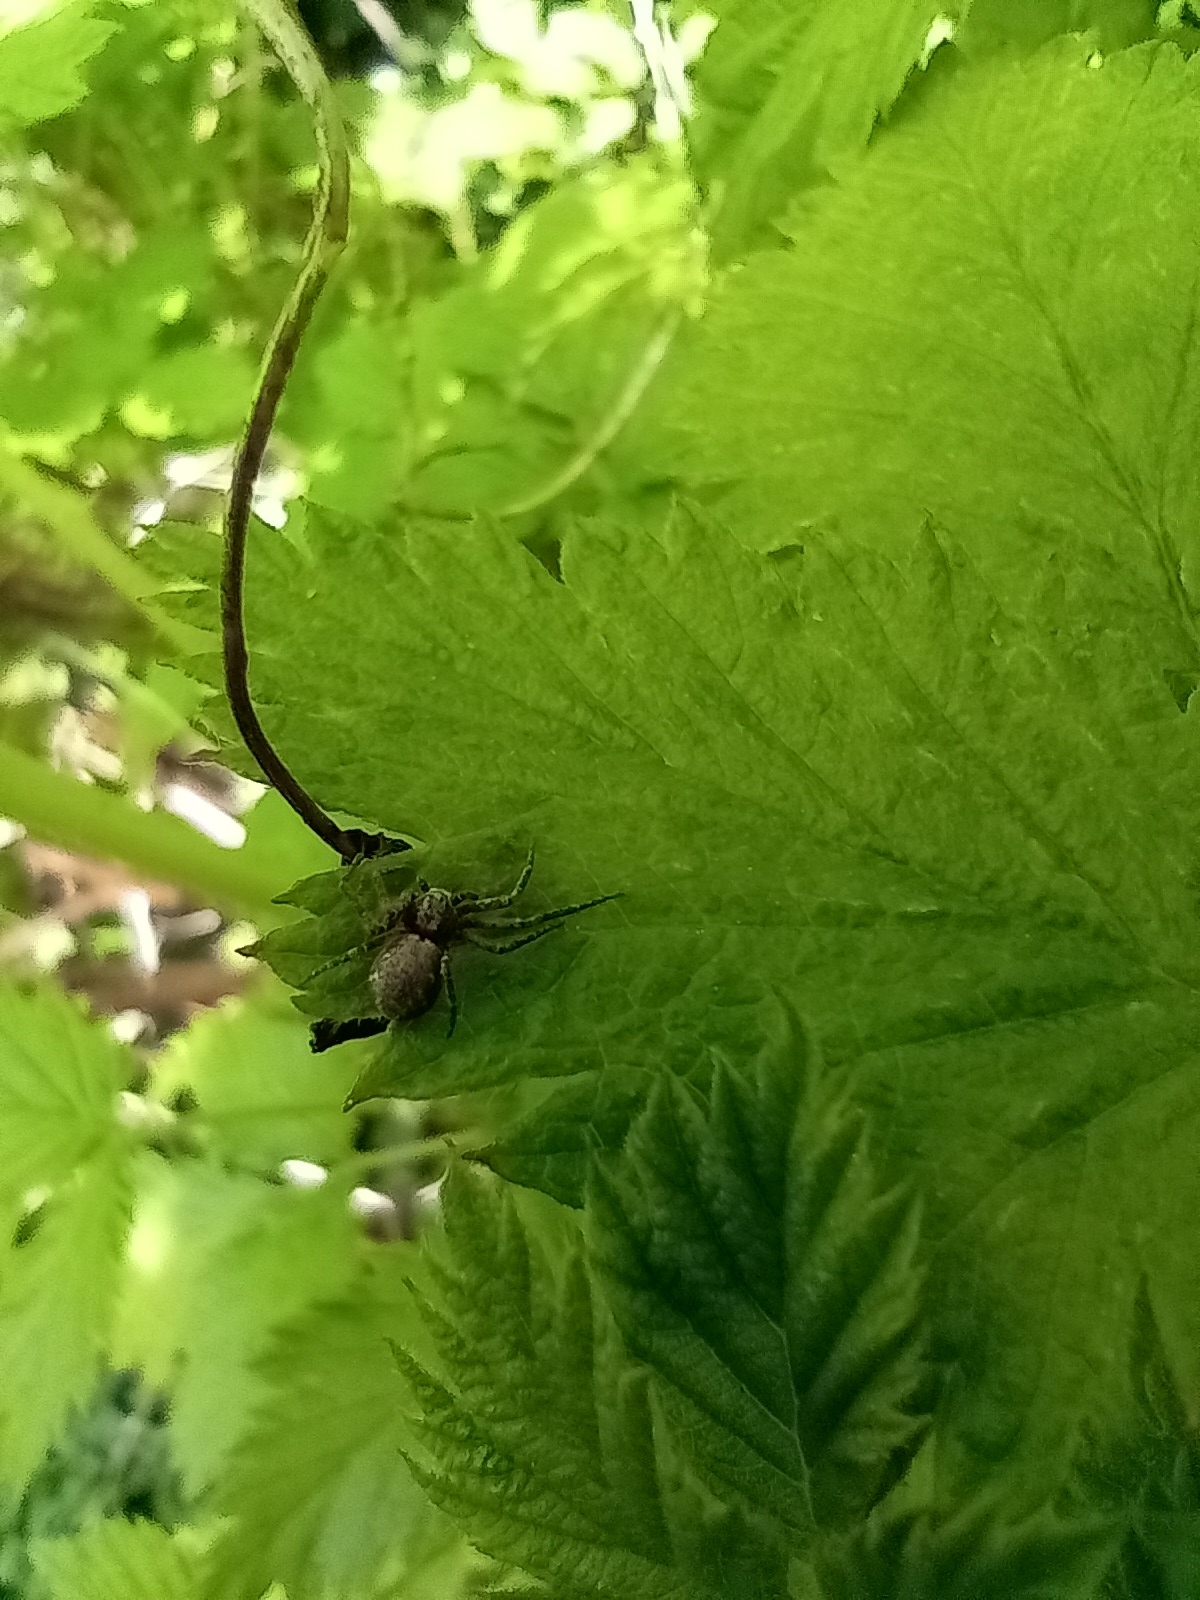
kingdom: Animalia
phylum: Arthropoda
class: Arachnida
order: Araneae
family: Philodromidae
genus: Philodromus
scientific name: Philodromus
